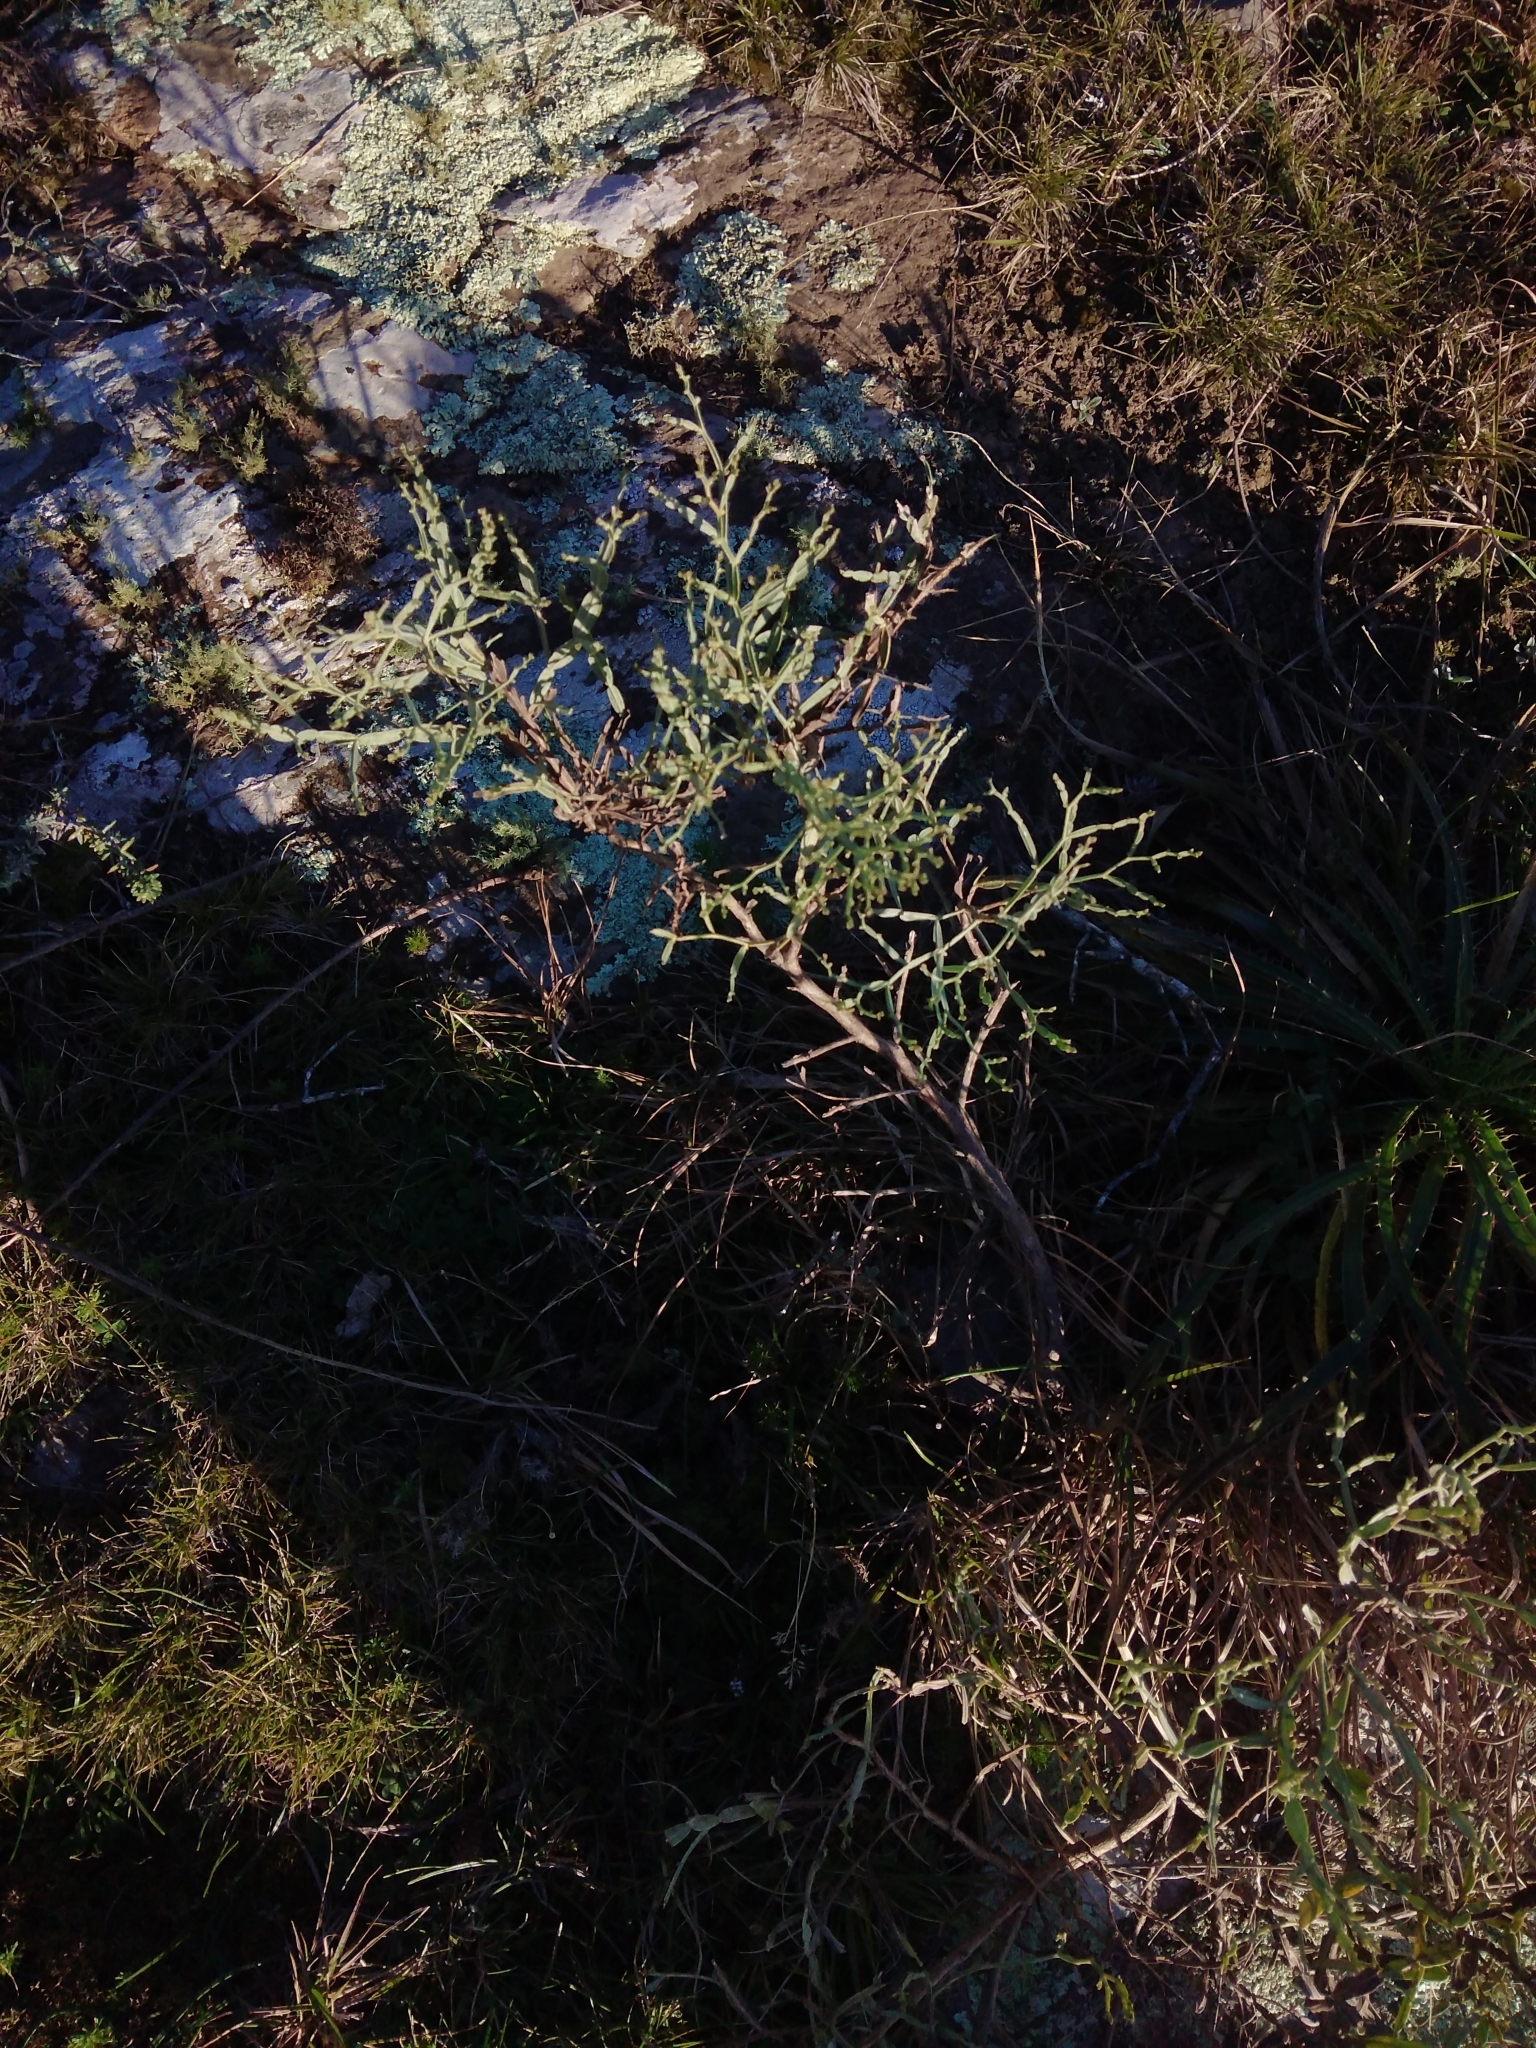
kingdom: Plantae
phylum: Tracheophyta
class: Magnoliopsida
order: Asterales
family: Asteraceae
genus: Baccharis
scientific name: Baccharis articulata
